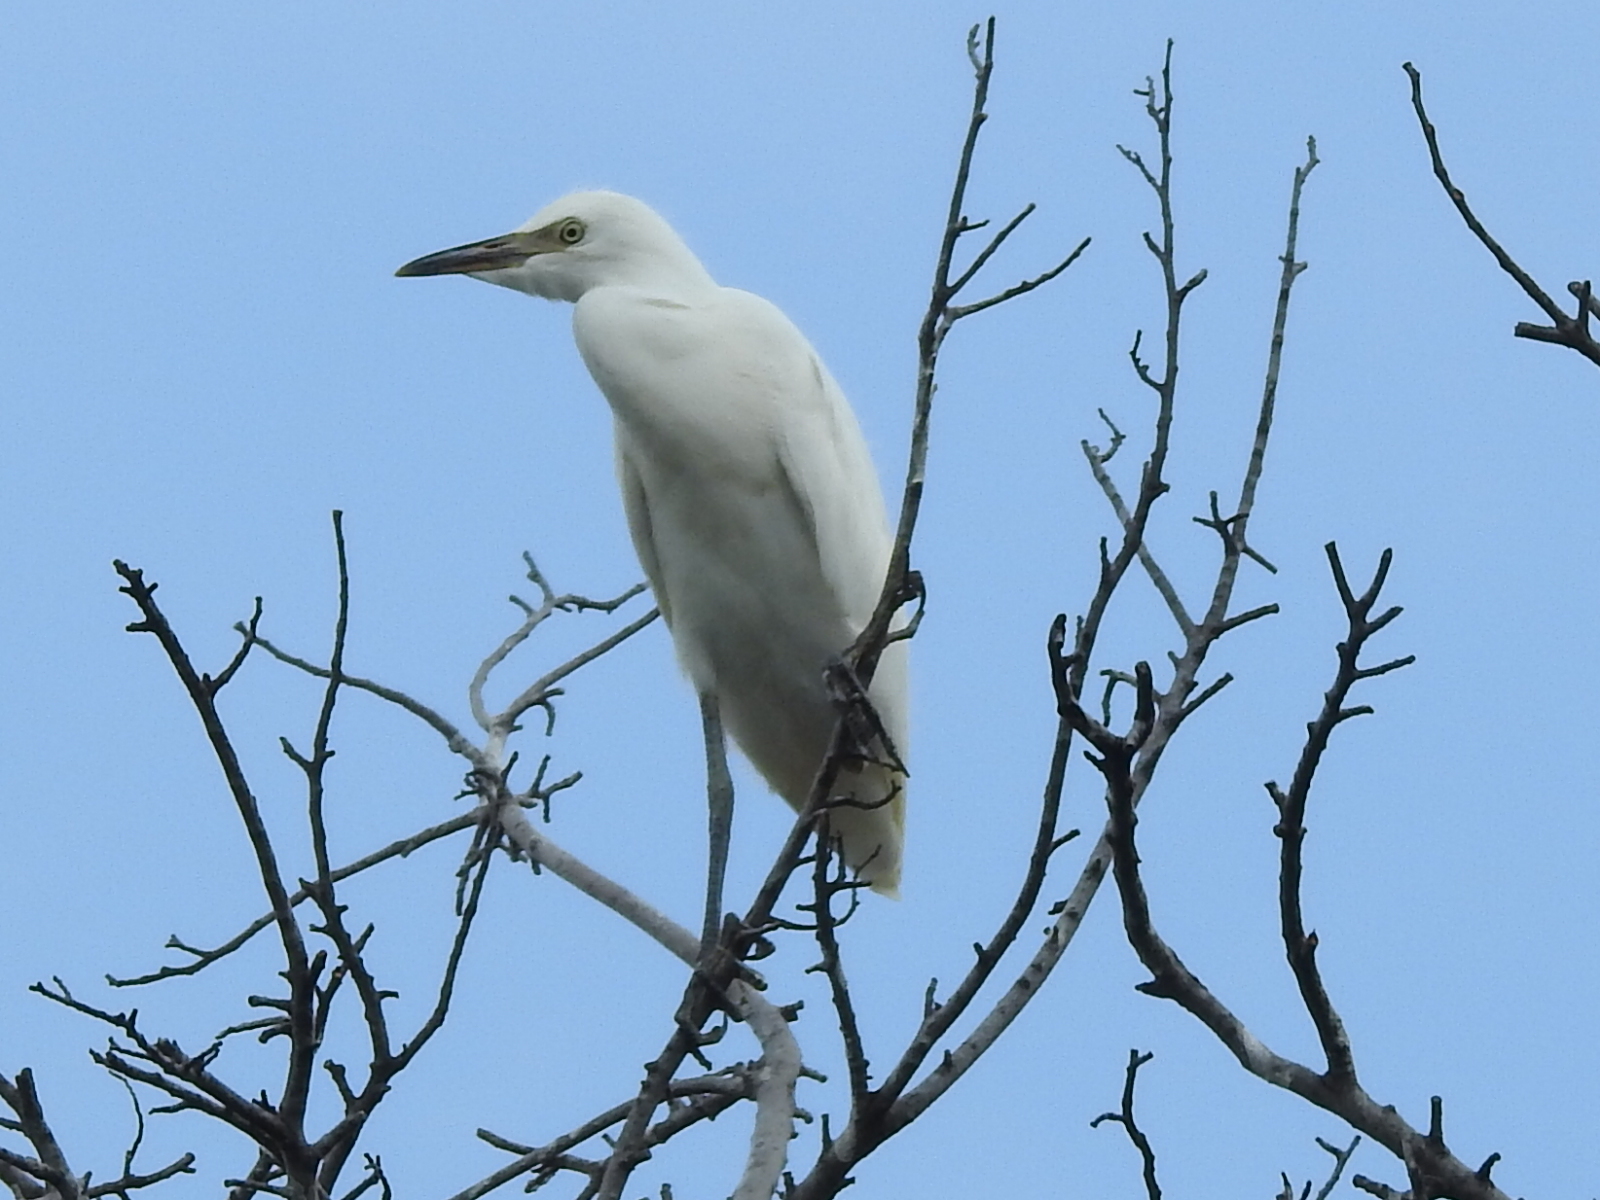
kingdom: Animalia
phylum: Chordata
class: Aves
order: Pelecaniformes
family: Ardeidae
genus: Bubulcus
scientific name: Bubulcus ibis
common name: Cattle egret
